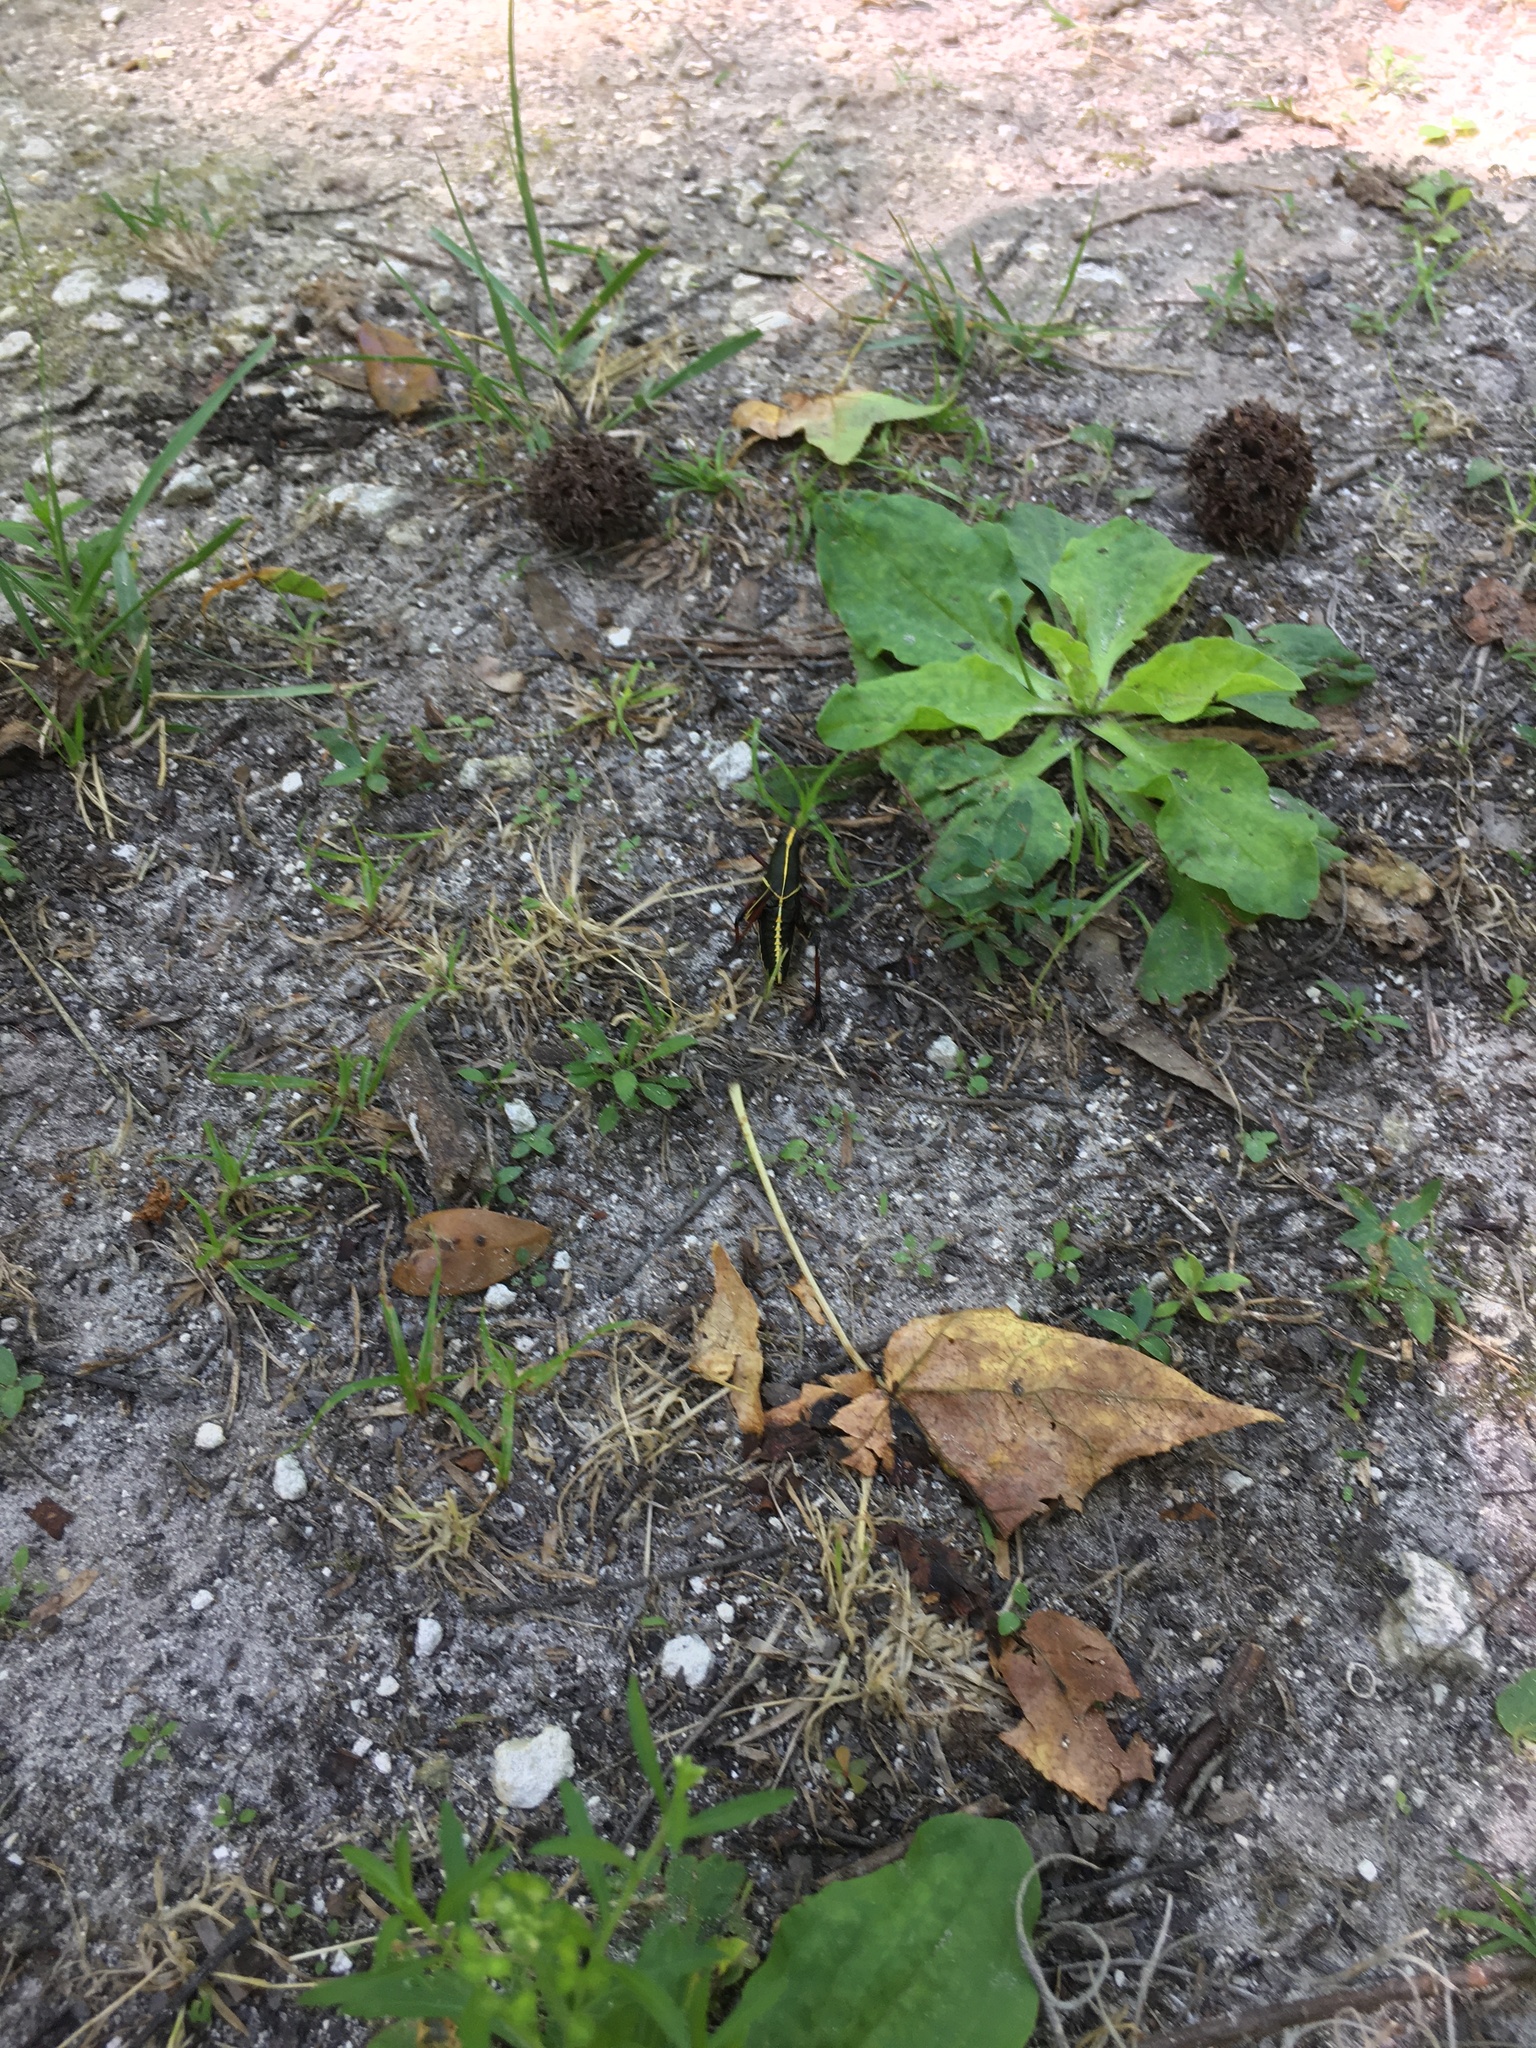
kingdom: Animalia
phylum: Arthropoda
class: Insecta
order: Orthoptera
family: Romaleidae
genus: Romalea
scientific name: Romalea microptera
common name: Eastern lubber grasshopper
